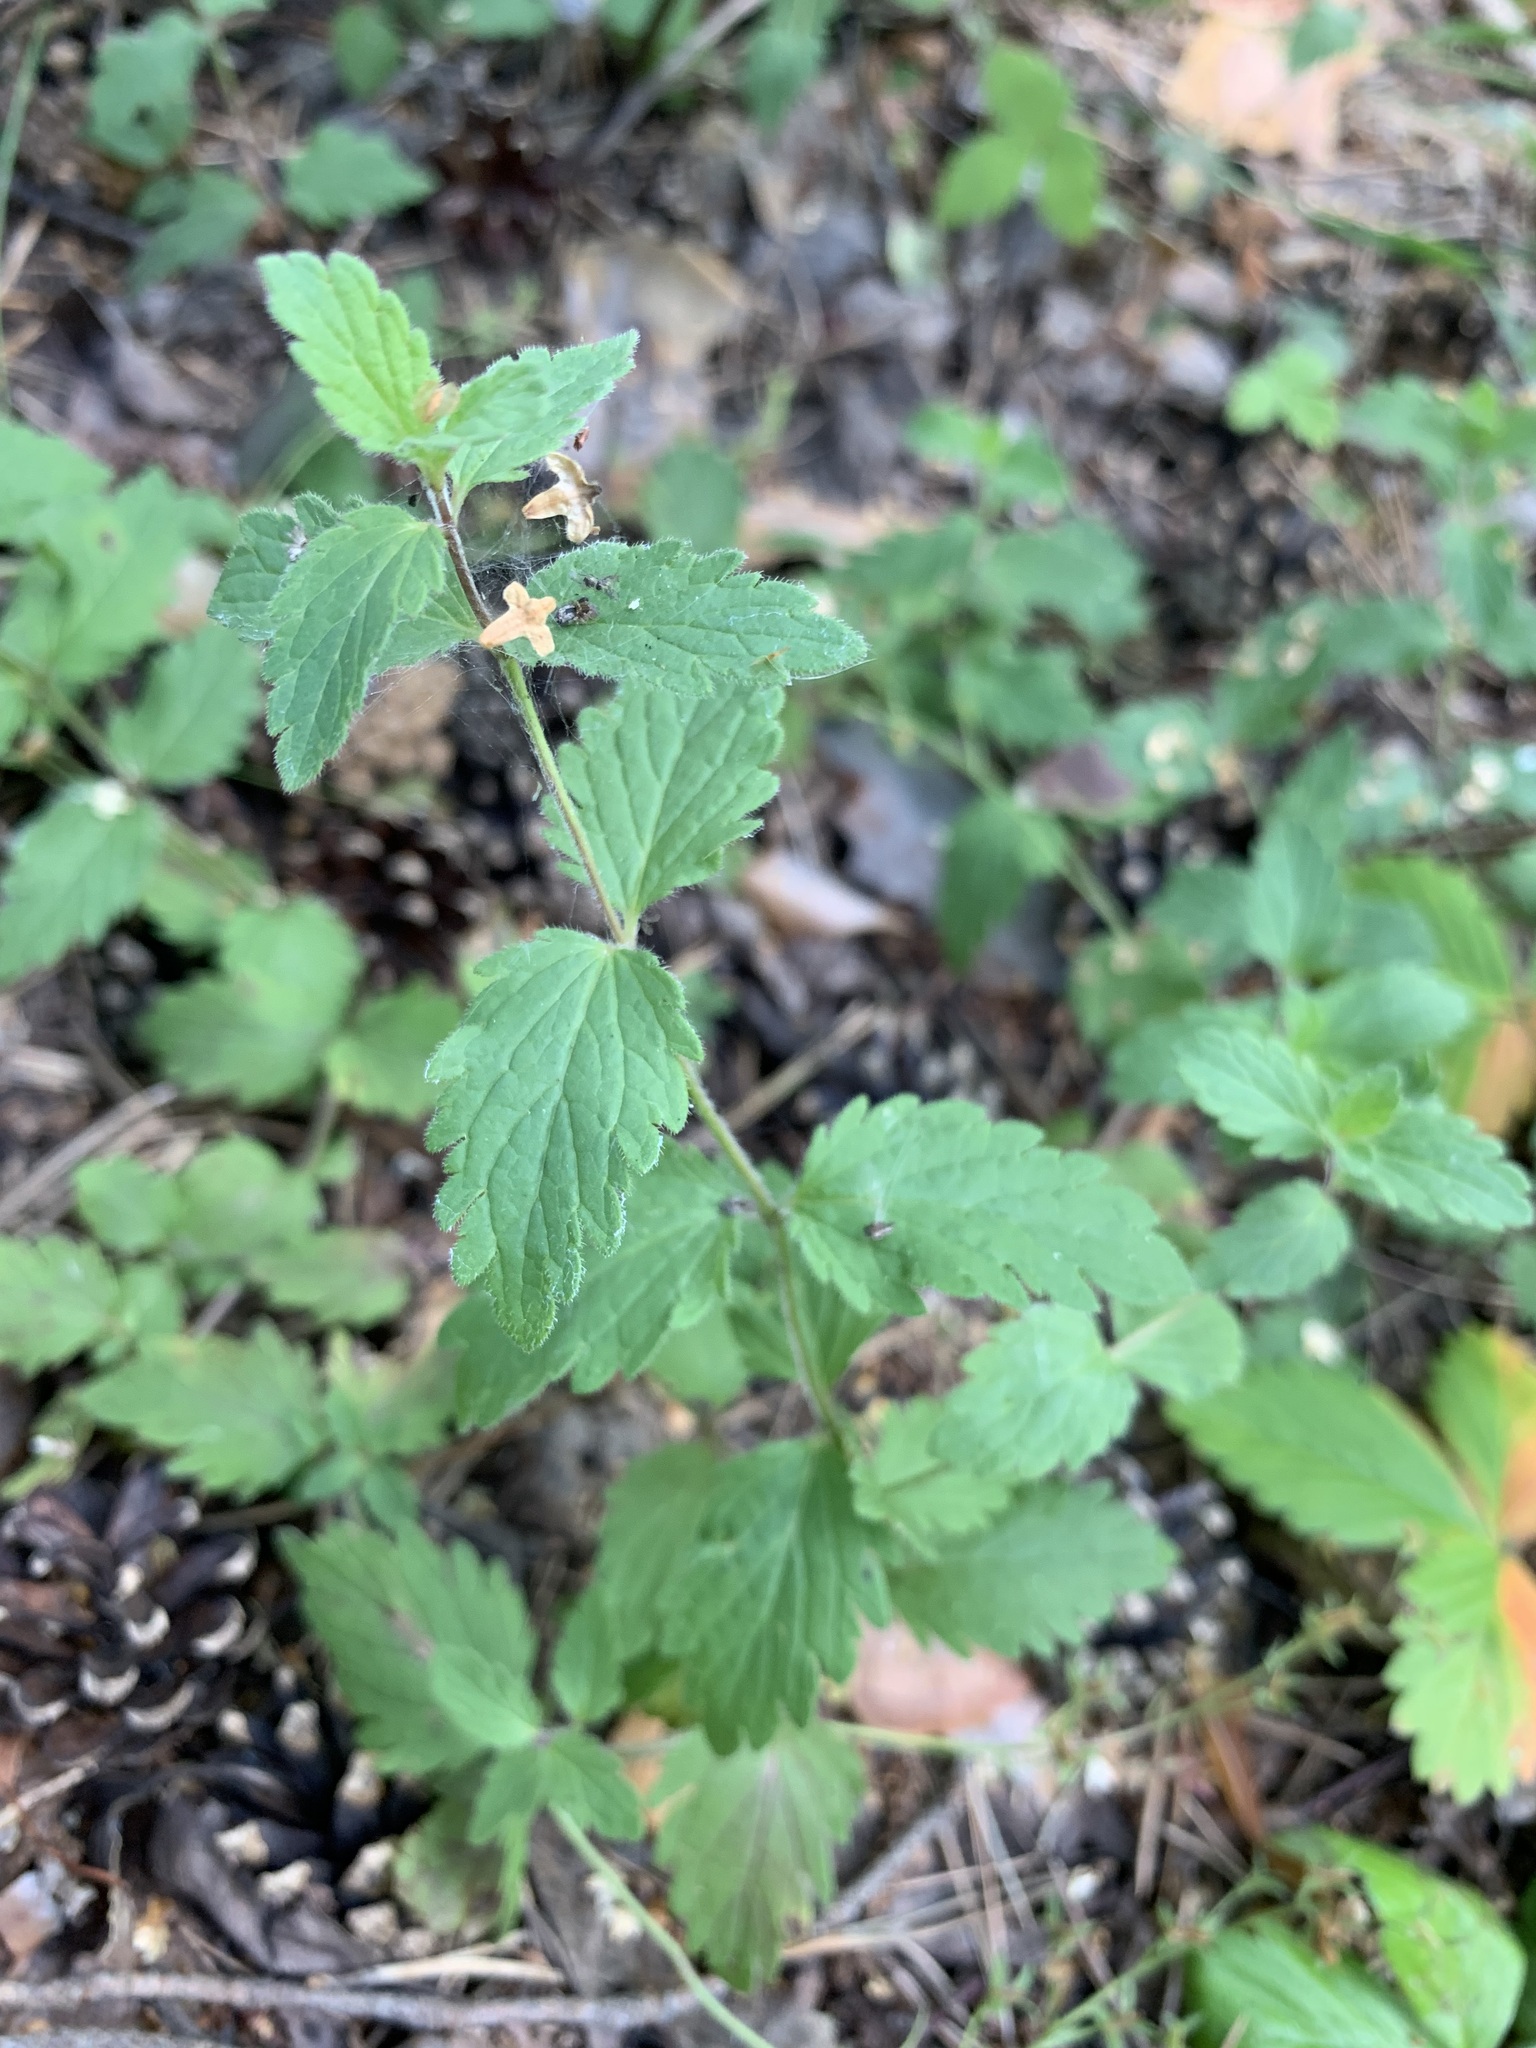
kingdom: Plantae
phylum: Tracheophyta
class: Magnoliopsida
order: Lamiales
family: Plantaginaceae
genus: Veronica
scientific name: Veronica chamaedrys
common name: Germander speedwell
